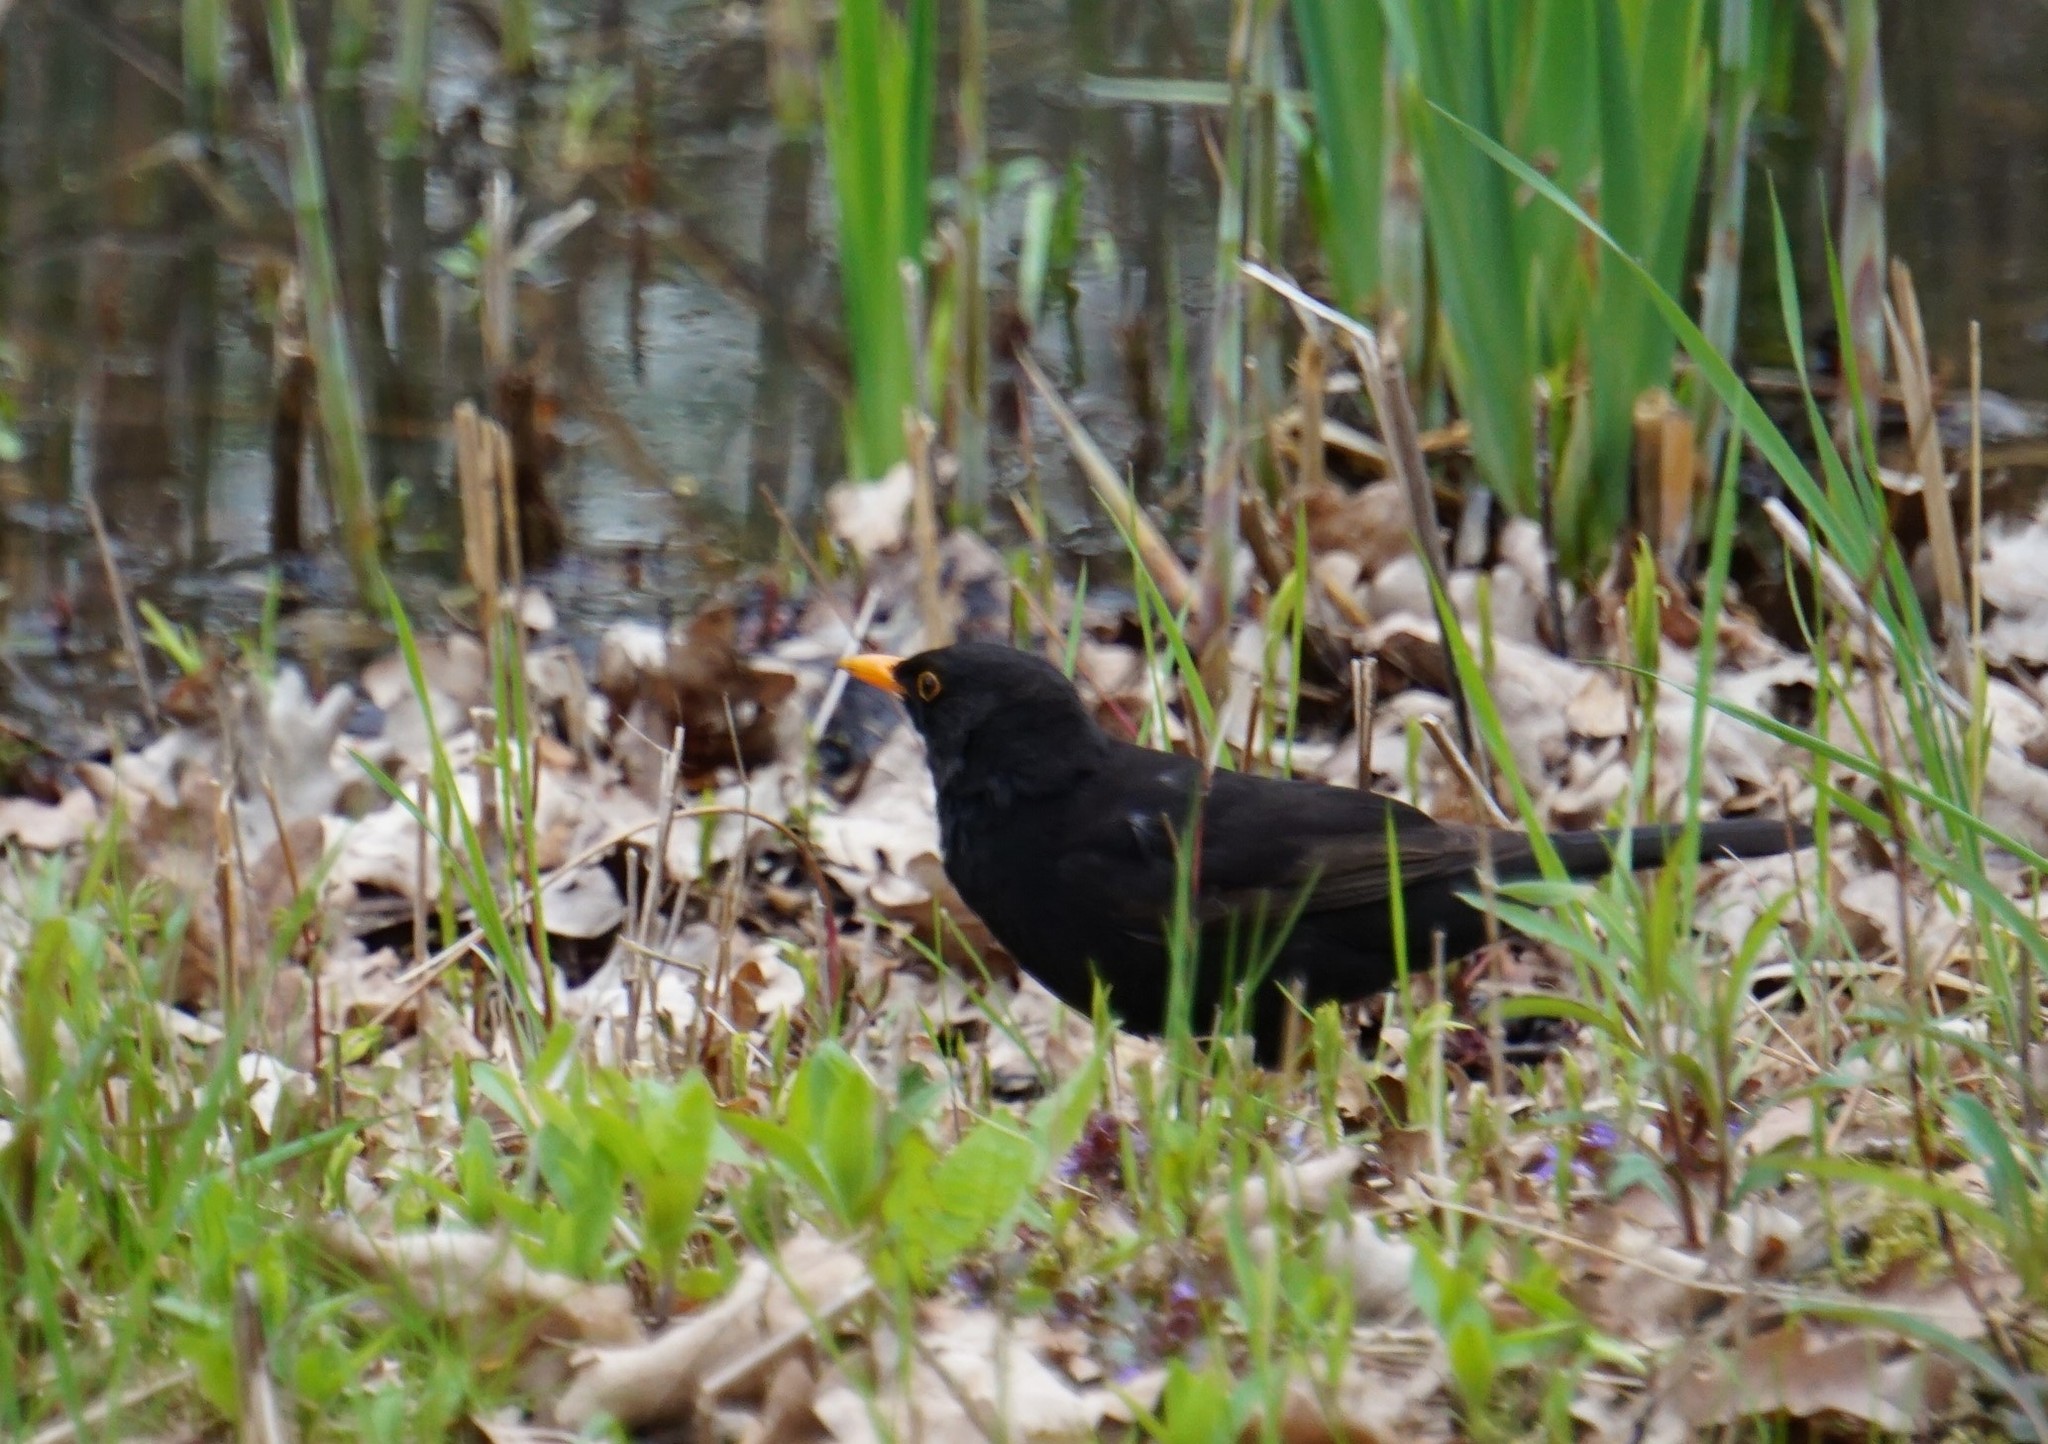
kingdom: Animalia
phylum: Chordata
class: Aves
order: Passeriformes
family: Turdidae
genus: Turdus
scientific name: Turdus merula
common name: Common blackbird
